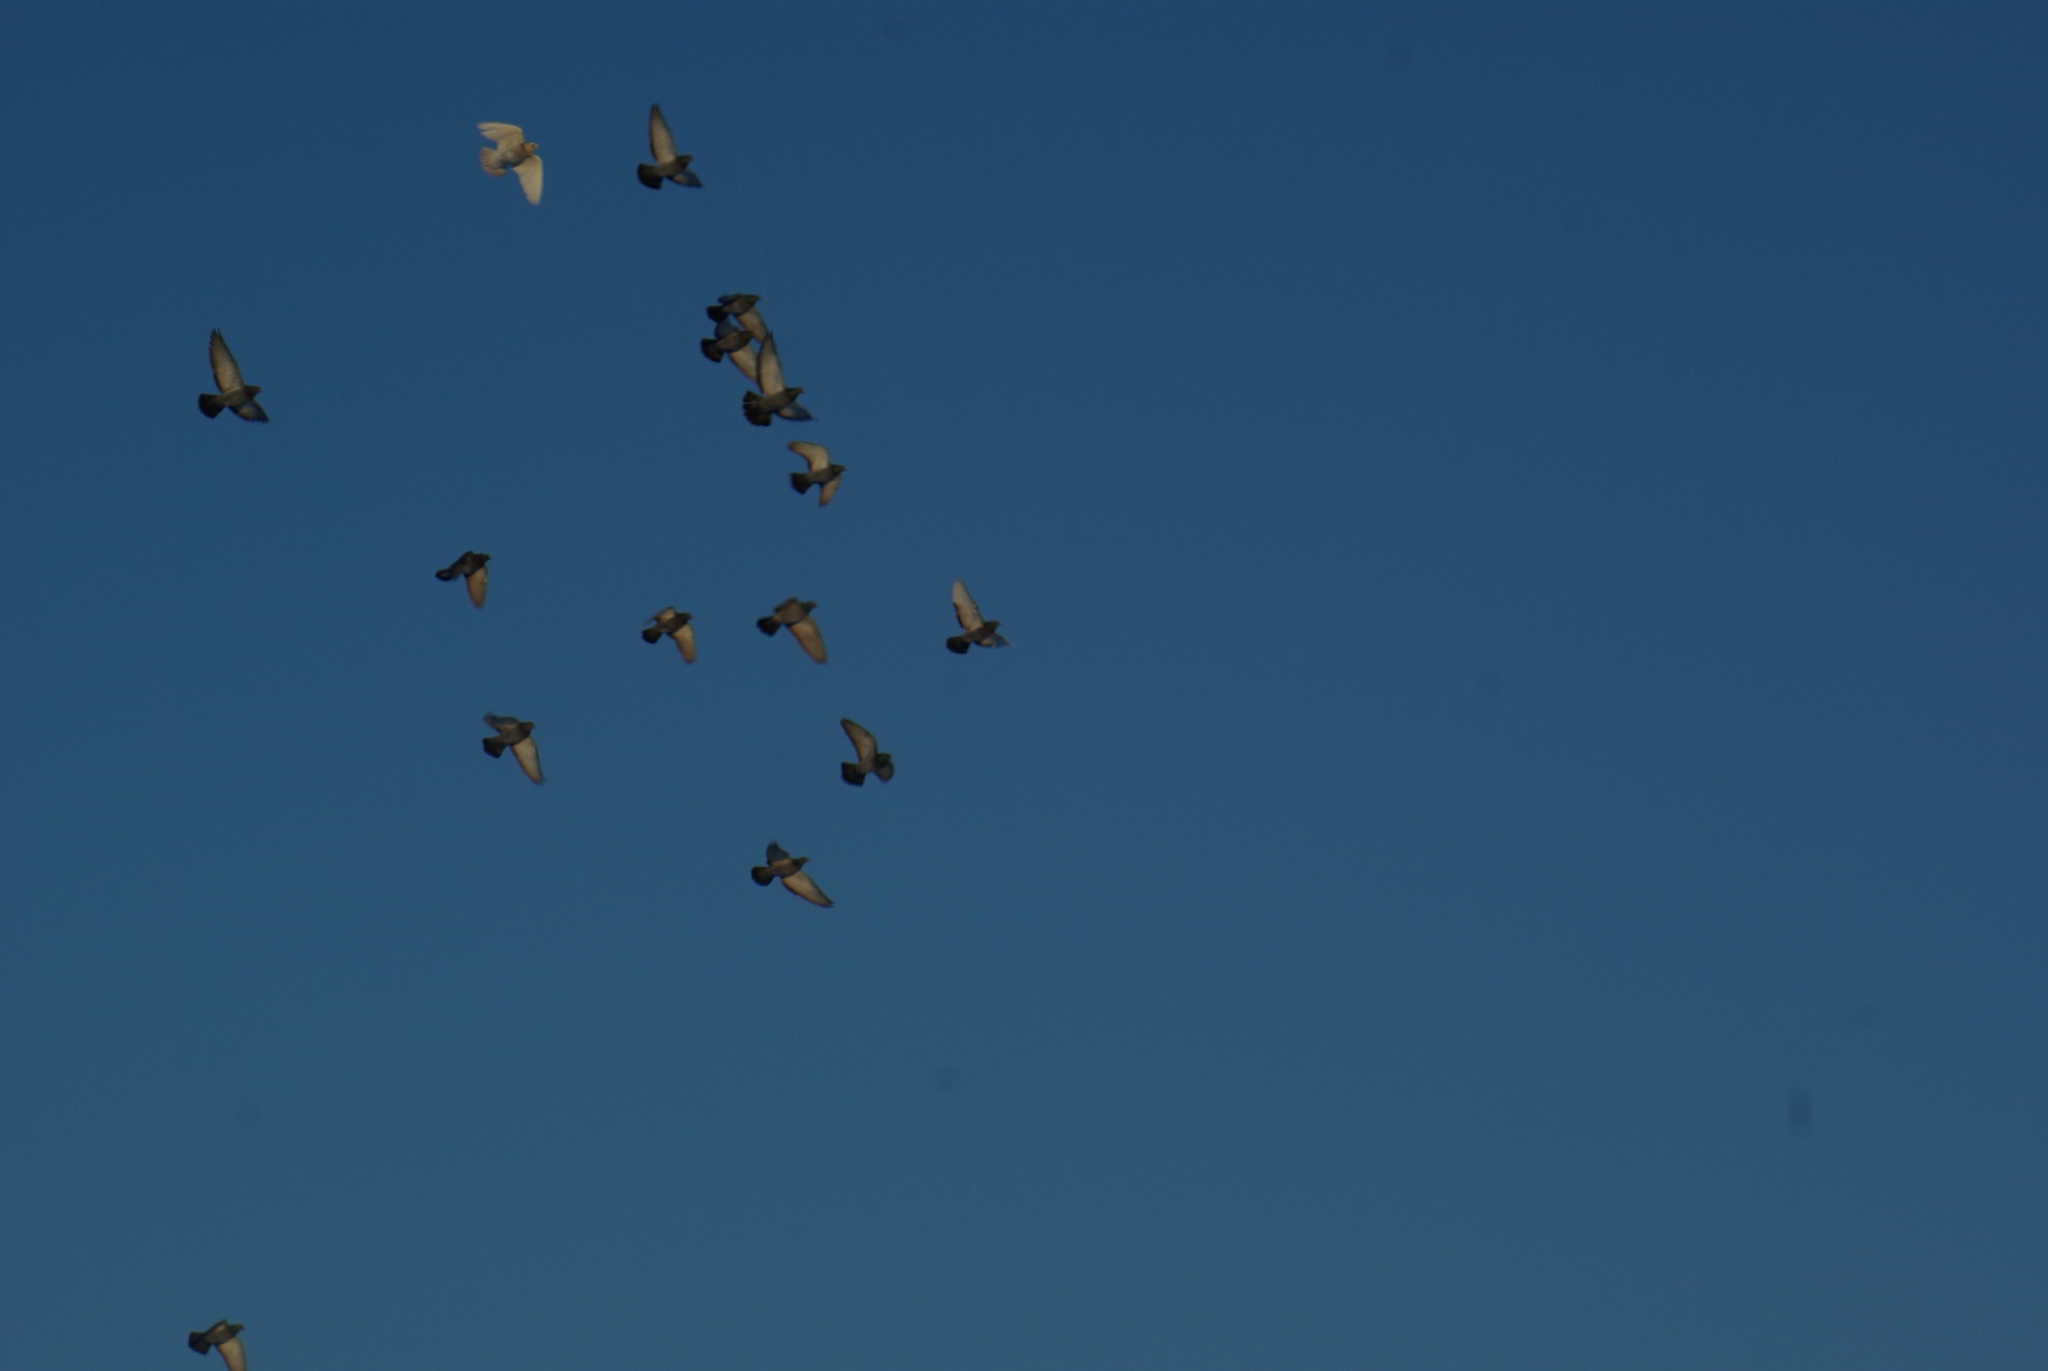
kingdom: Animalia
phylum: Chordata
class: Aves
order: Columbiformes
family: Columbidae
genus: Columba
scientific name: Columba livia
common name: Rock pigeon
